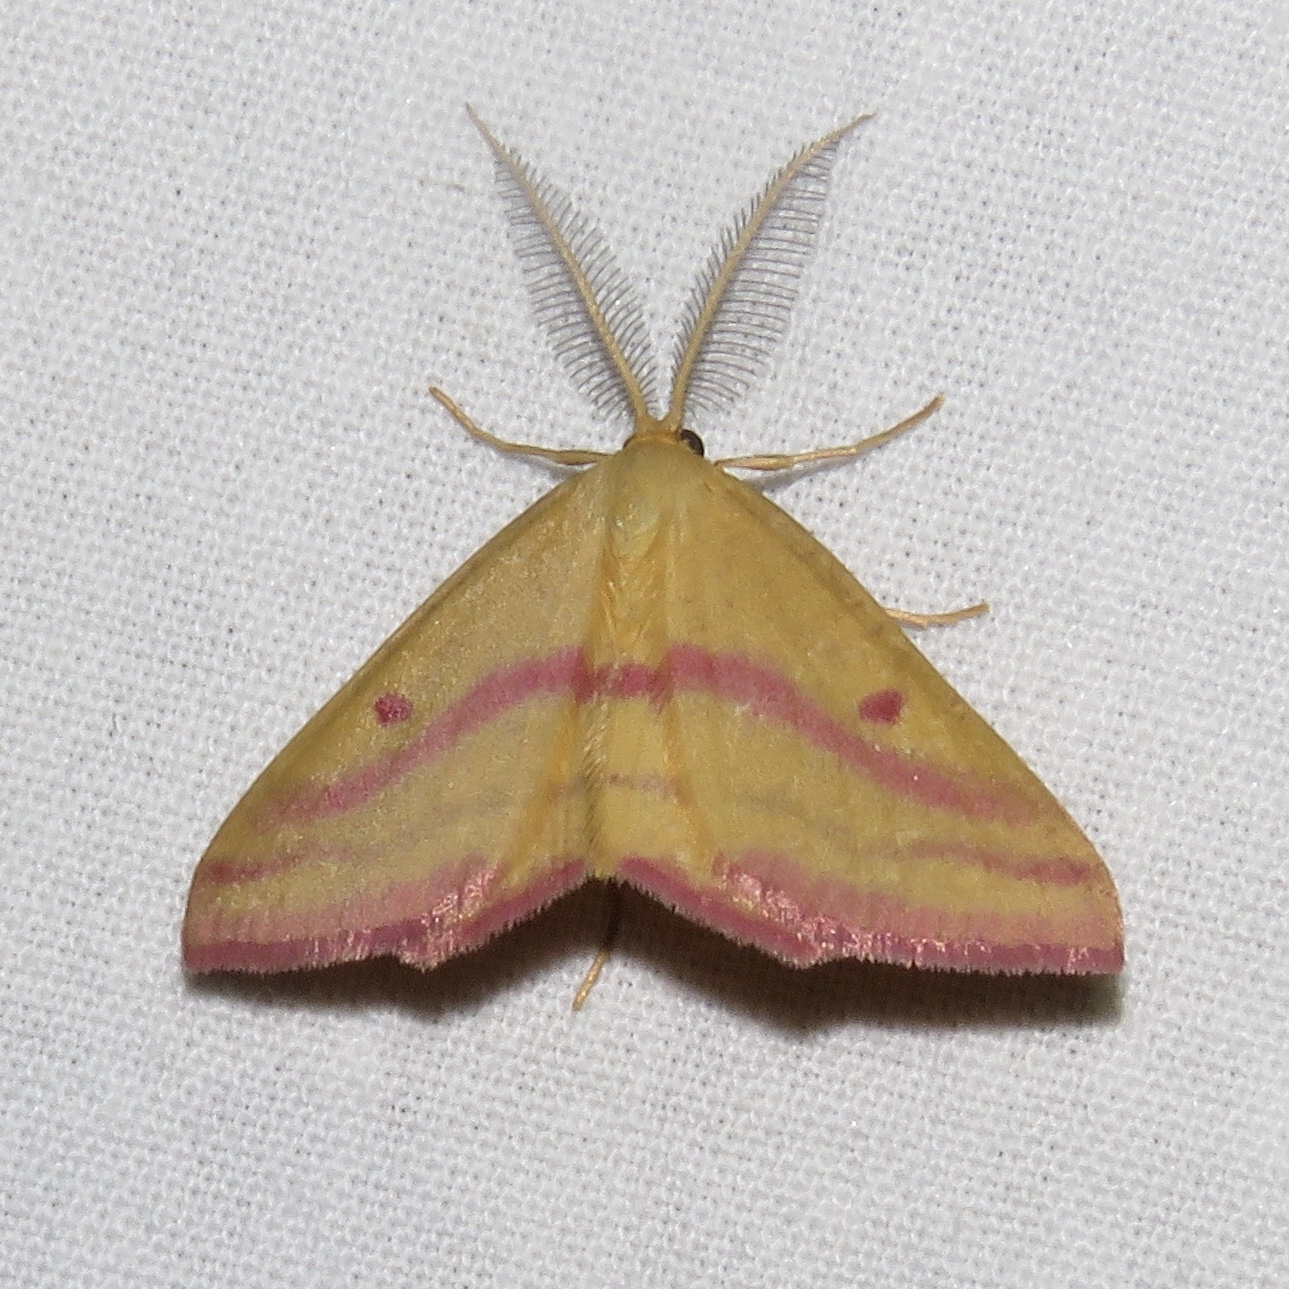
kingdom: Animalia
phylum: Arthropoda
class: Insecta
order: Lepidoptera
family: Geometridae
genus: Haematopis
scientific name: Haematopis grataria
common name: Chickweed geometer
